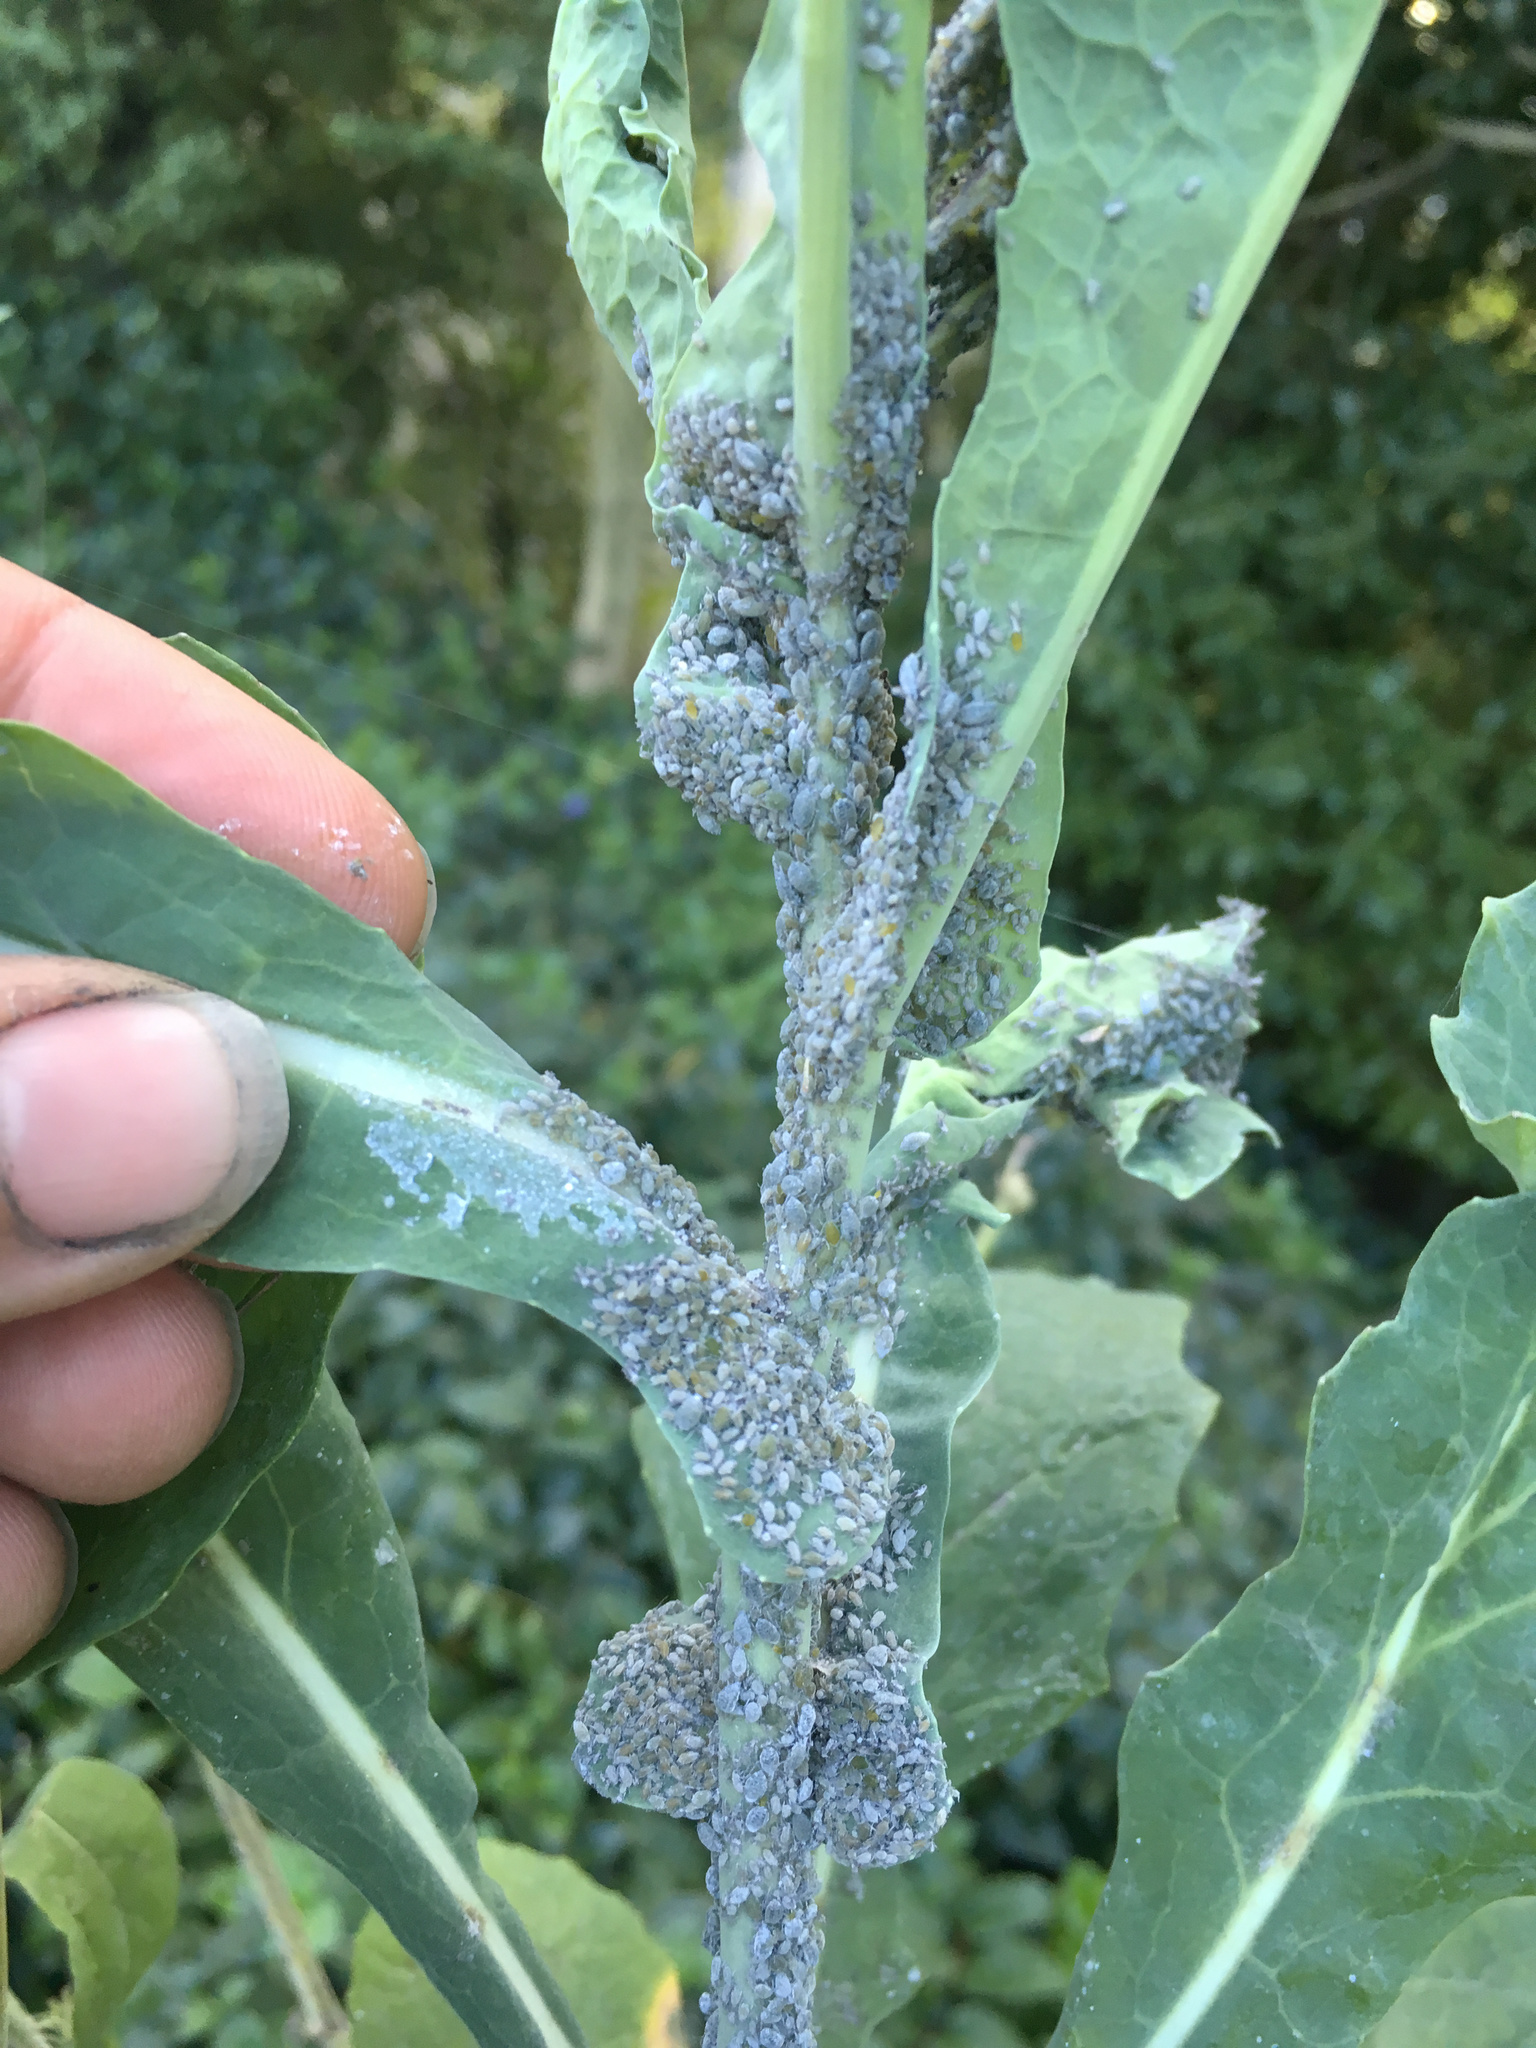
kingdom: Animalia
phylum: Arthropoda
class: Insecta
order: Hemiptera
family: Aphididae
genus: Brevicoryne
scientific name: Brevicoryne brassicae
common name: Cabbage aphid
